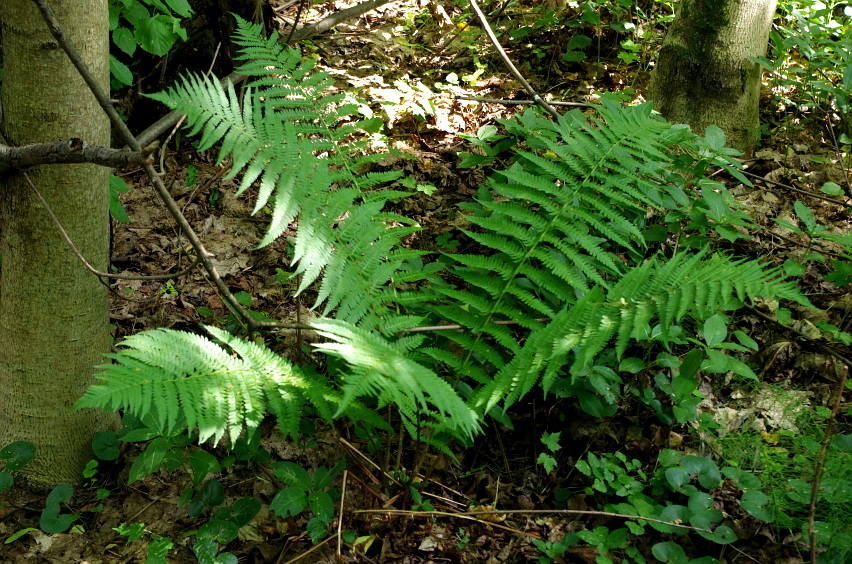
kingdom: Plantae
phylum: Tracheophyta
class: Polypodiopsida
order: Polypodiales
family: Dryopteridaceae
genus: Dryopteris
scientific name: Dryopteris filix-mas
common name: Male fern
